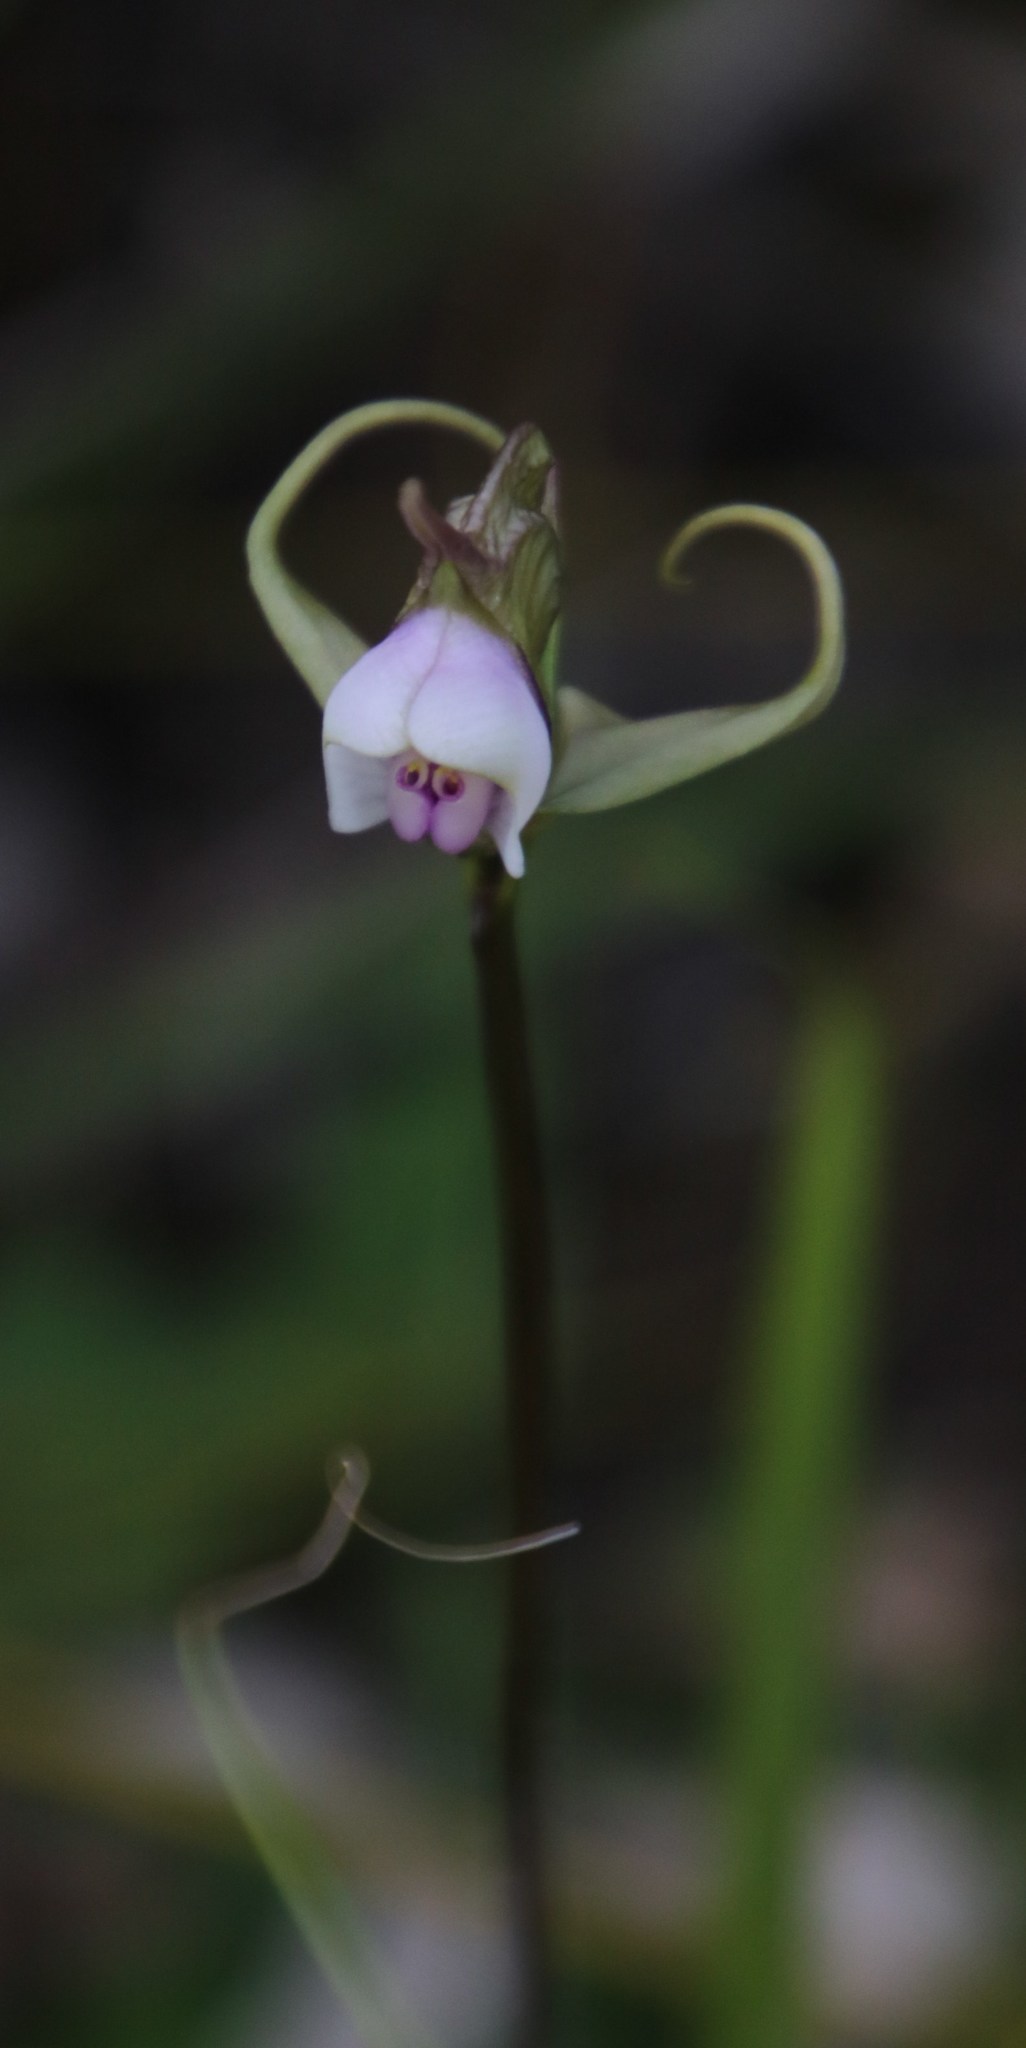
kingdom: Plantae
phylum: Tracheophyta
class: Liliopsida
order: Asparagales
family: Orchidaceae
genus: Disperis
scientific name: Disperis capensis
